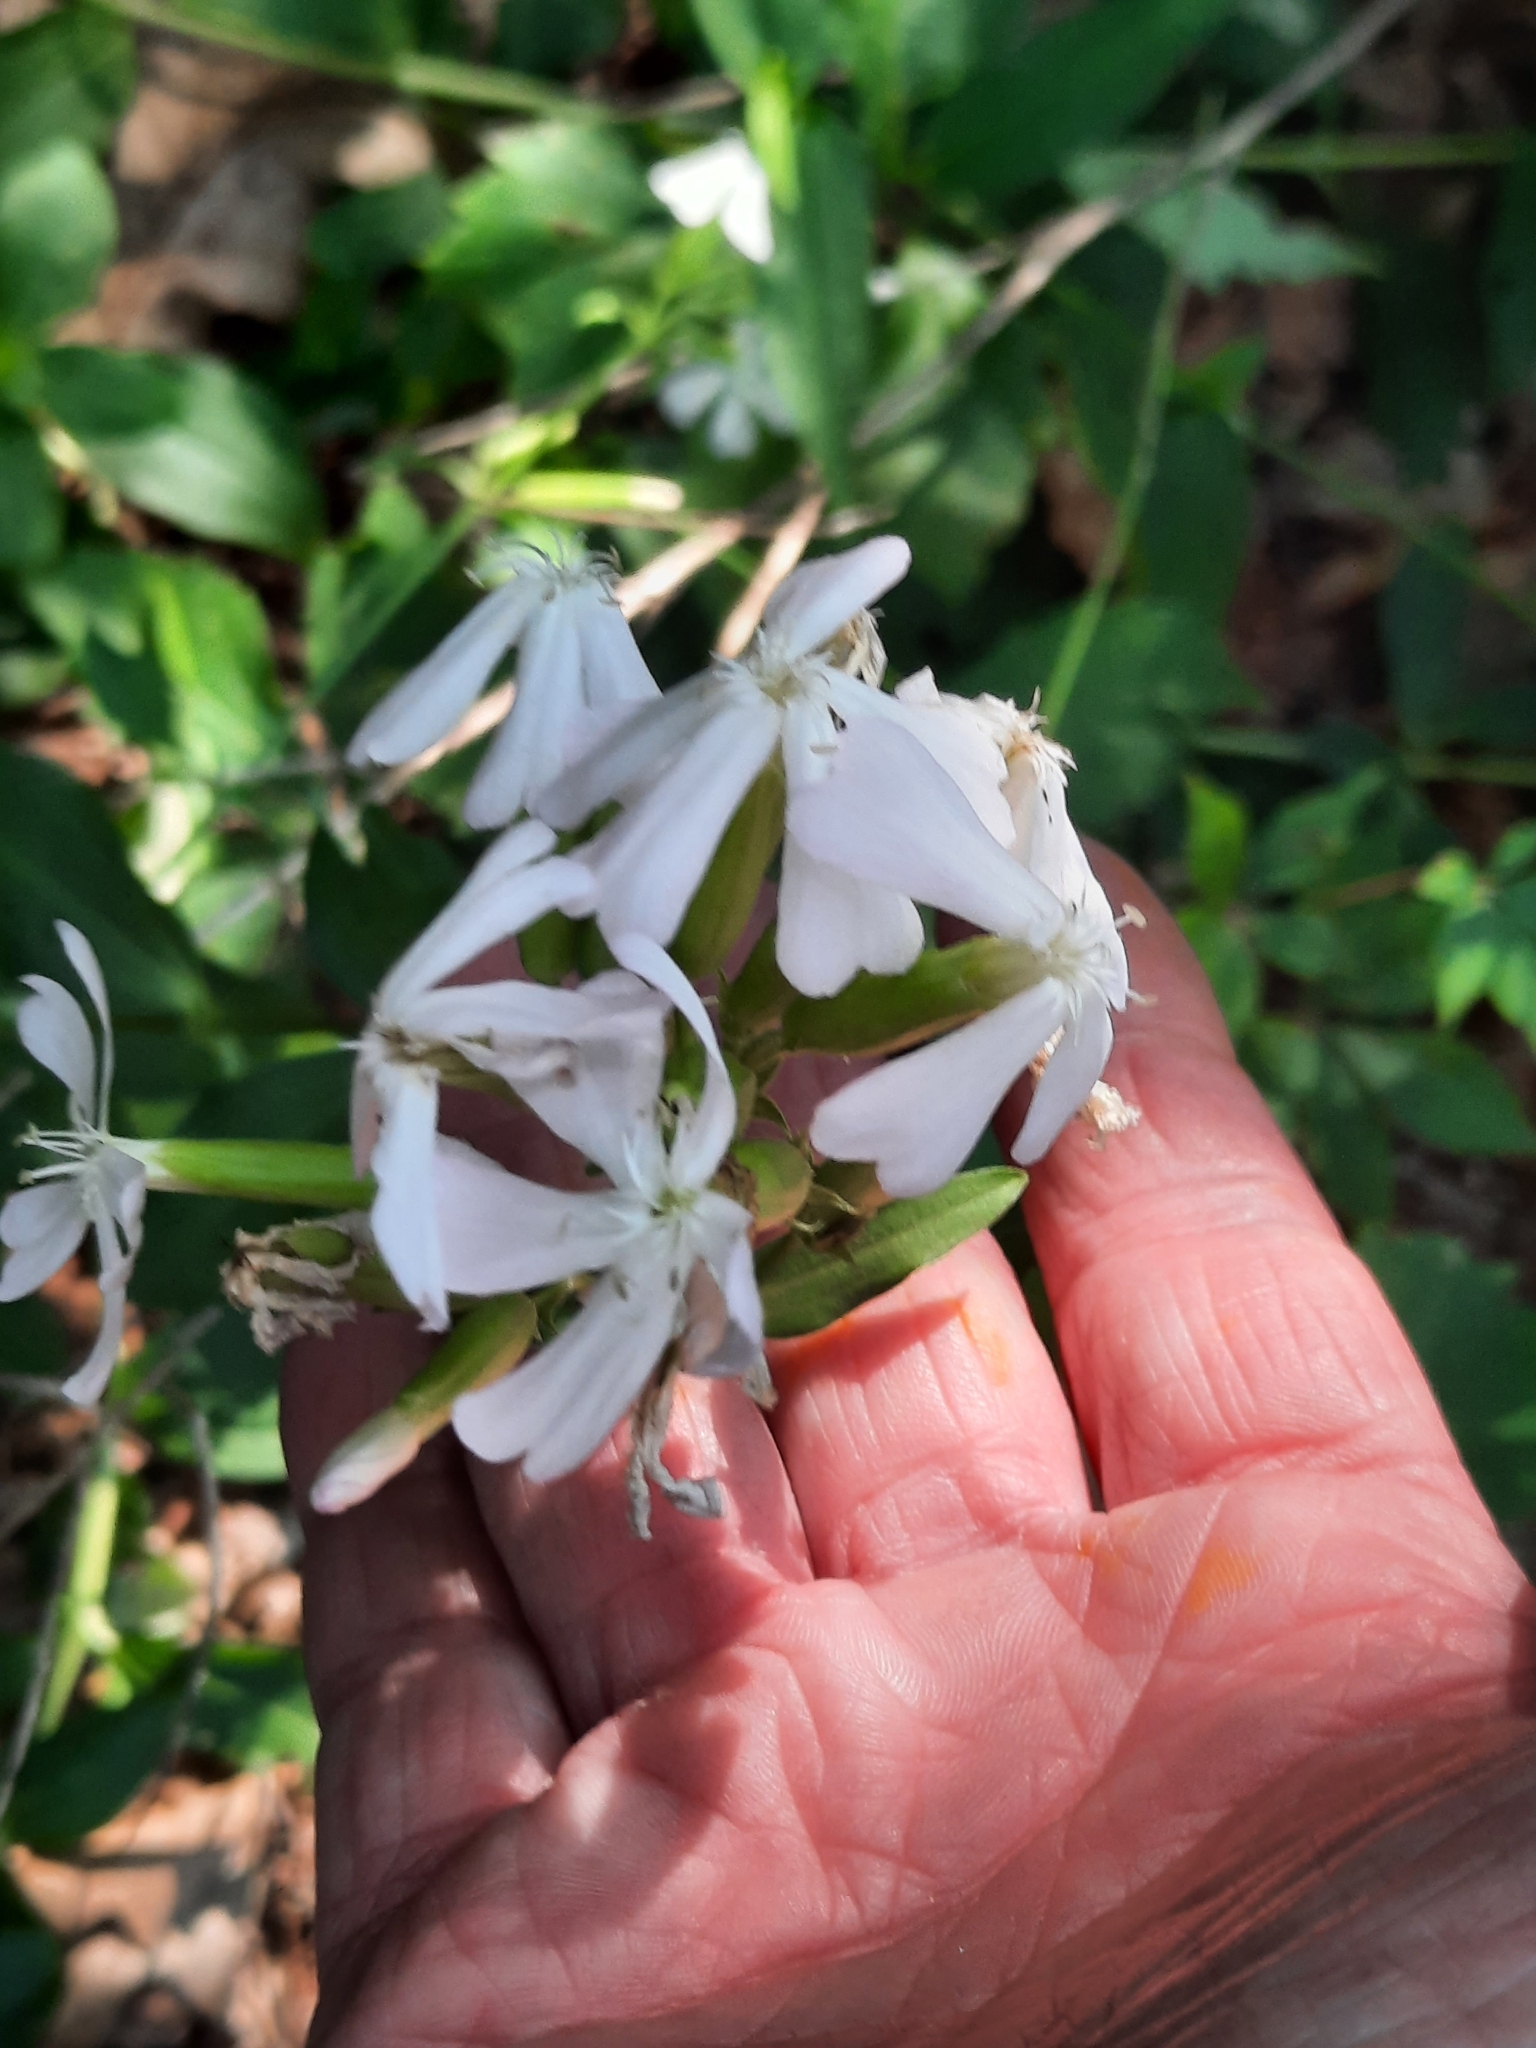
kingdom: Plantae
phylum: Tracheophyta
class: Magnoliopsida
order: Caryophyllales
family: Caryophyllaceae
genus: Saponaria
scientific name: Saponaria officinalis
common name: Soapwort
